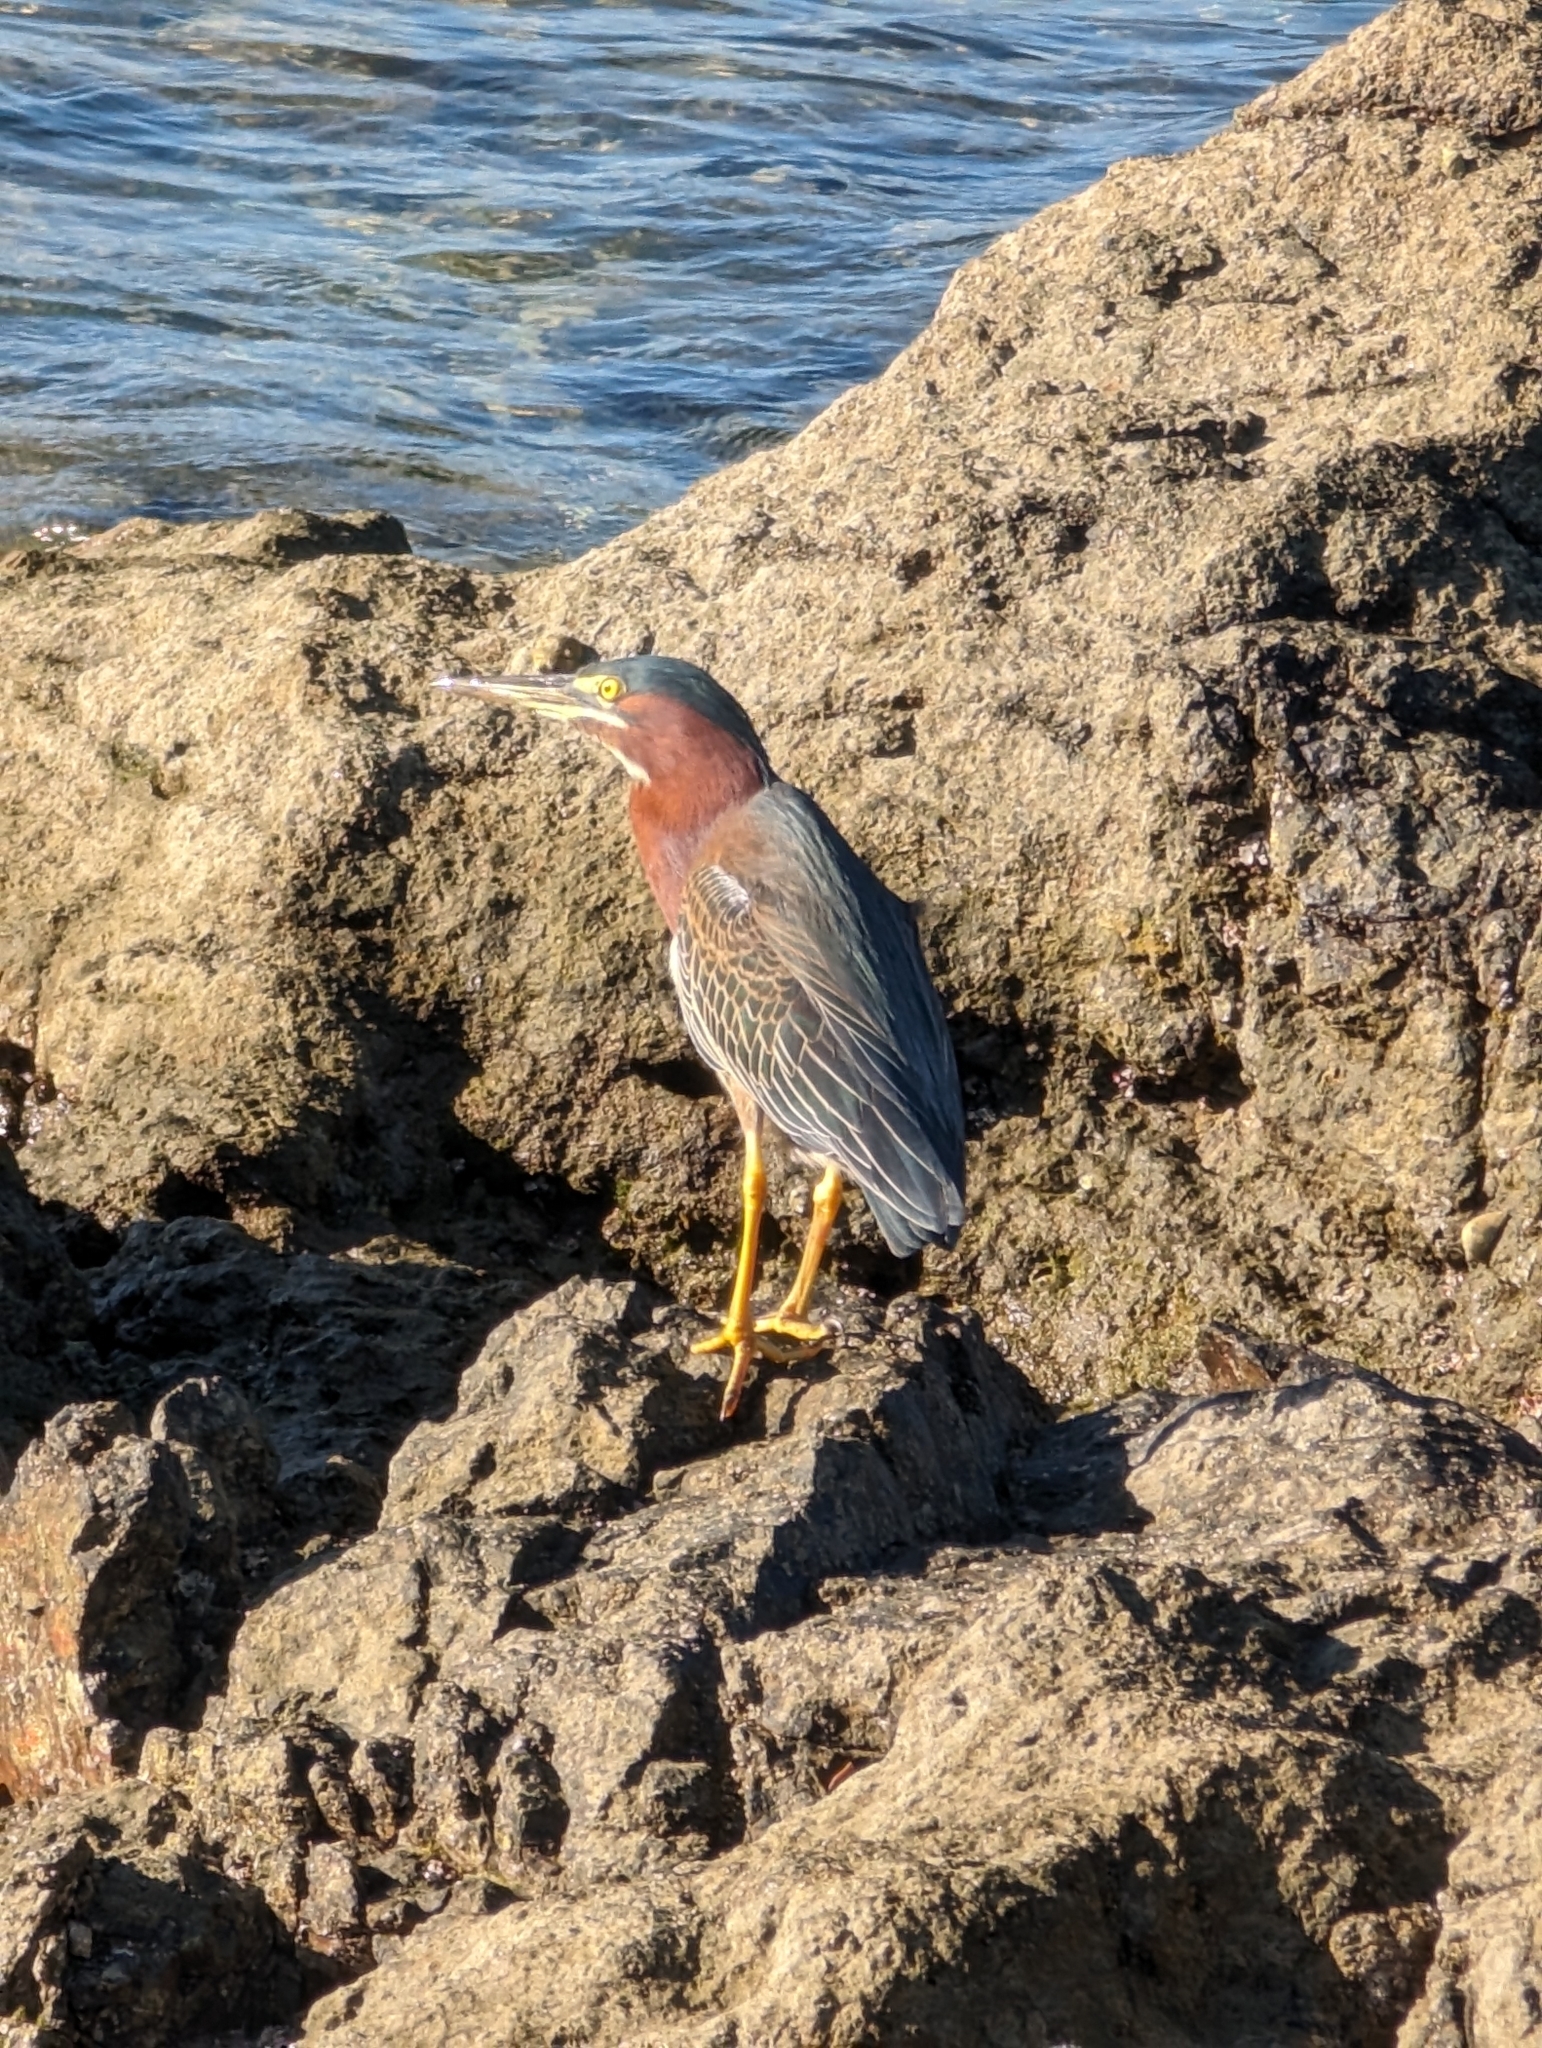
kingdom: Animalia
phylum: Chordata
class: Aves
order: Pelecaniformes
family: Ardeidae
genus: Butorides
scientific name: Butorides virescens
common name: Green heron
